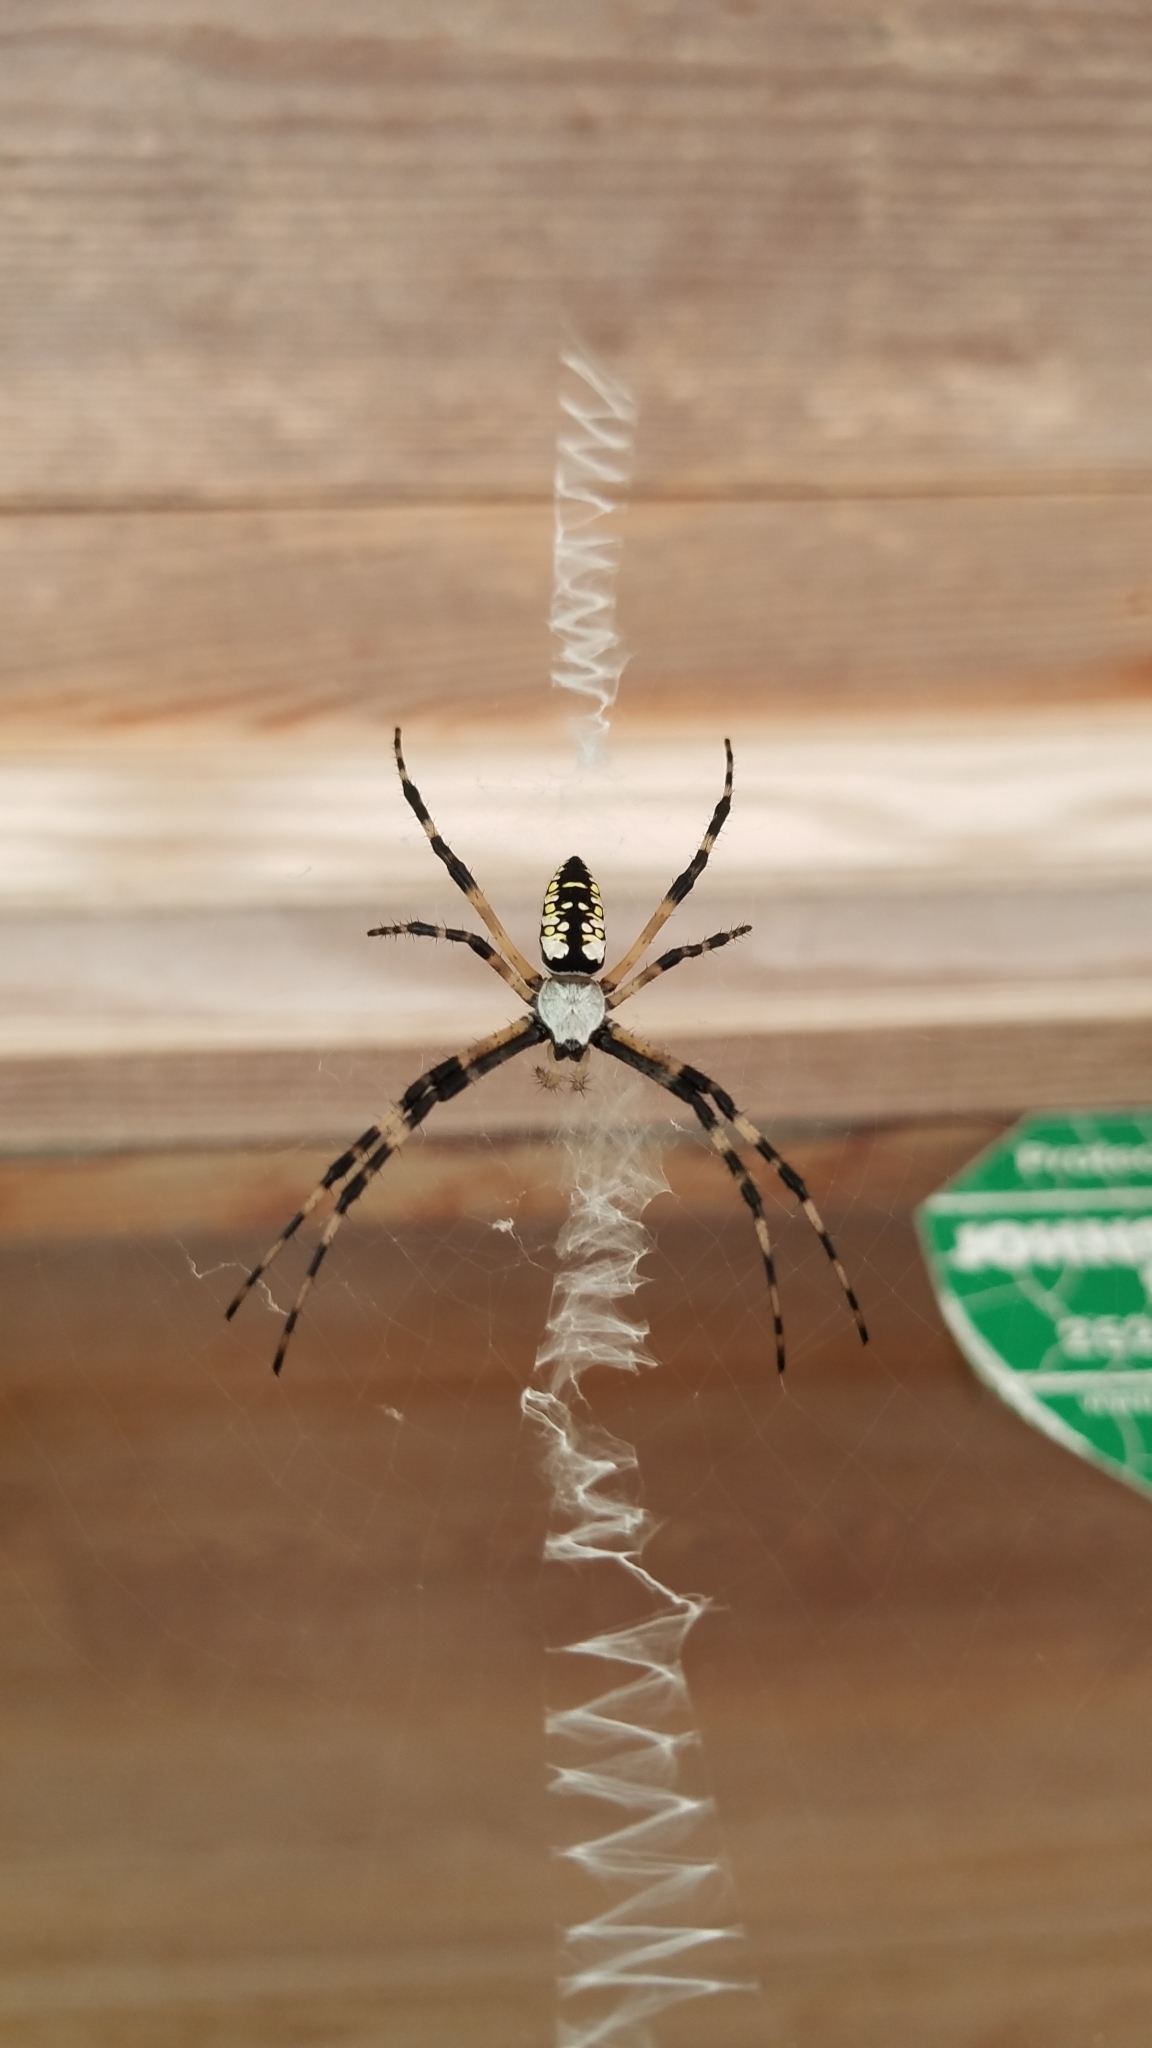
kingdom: Animalia
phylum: Arthropoda
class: Arachnida
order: Araneae
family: Araneidae
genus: Argiope
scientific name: Argiope aurantia
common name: Orb weavers
